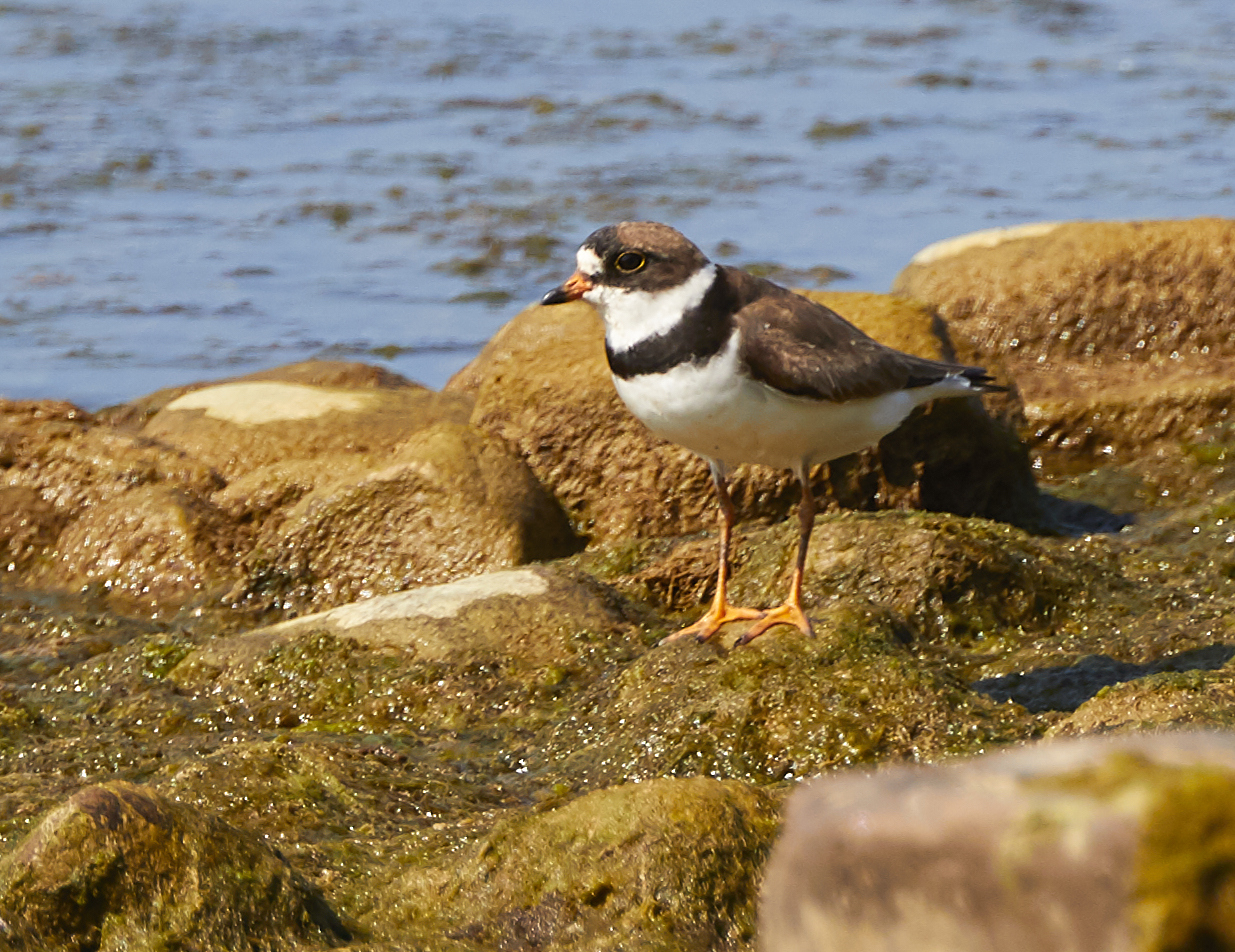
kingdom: Animalia
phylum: Chordata
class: Aves
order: Charadriiformes
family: Charadriidae
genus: Charadrius
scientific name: Charadrius semipalmatus
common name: Semipalmated plover
